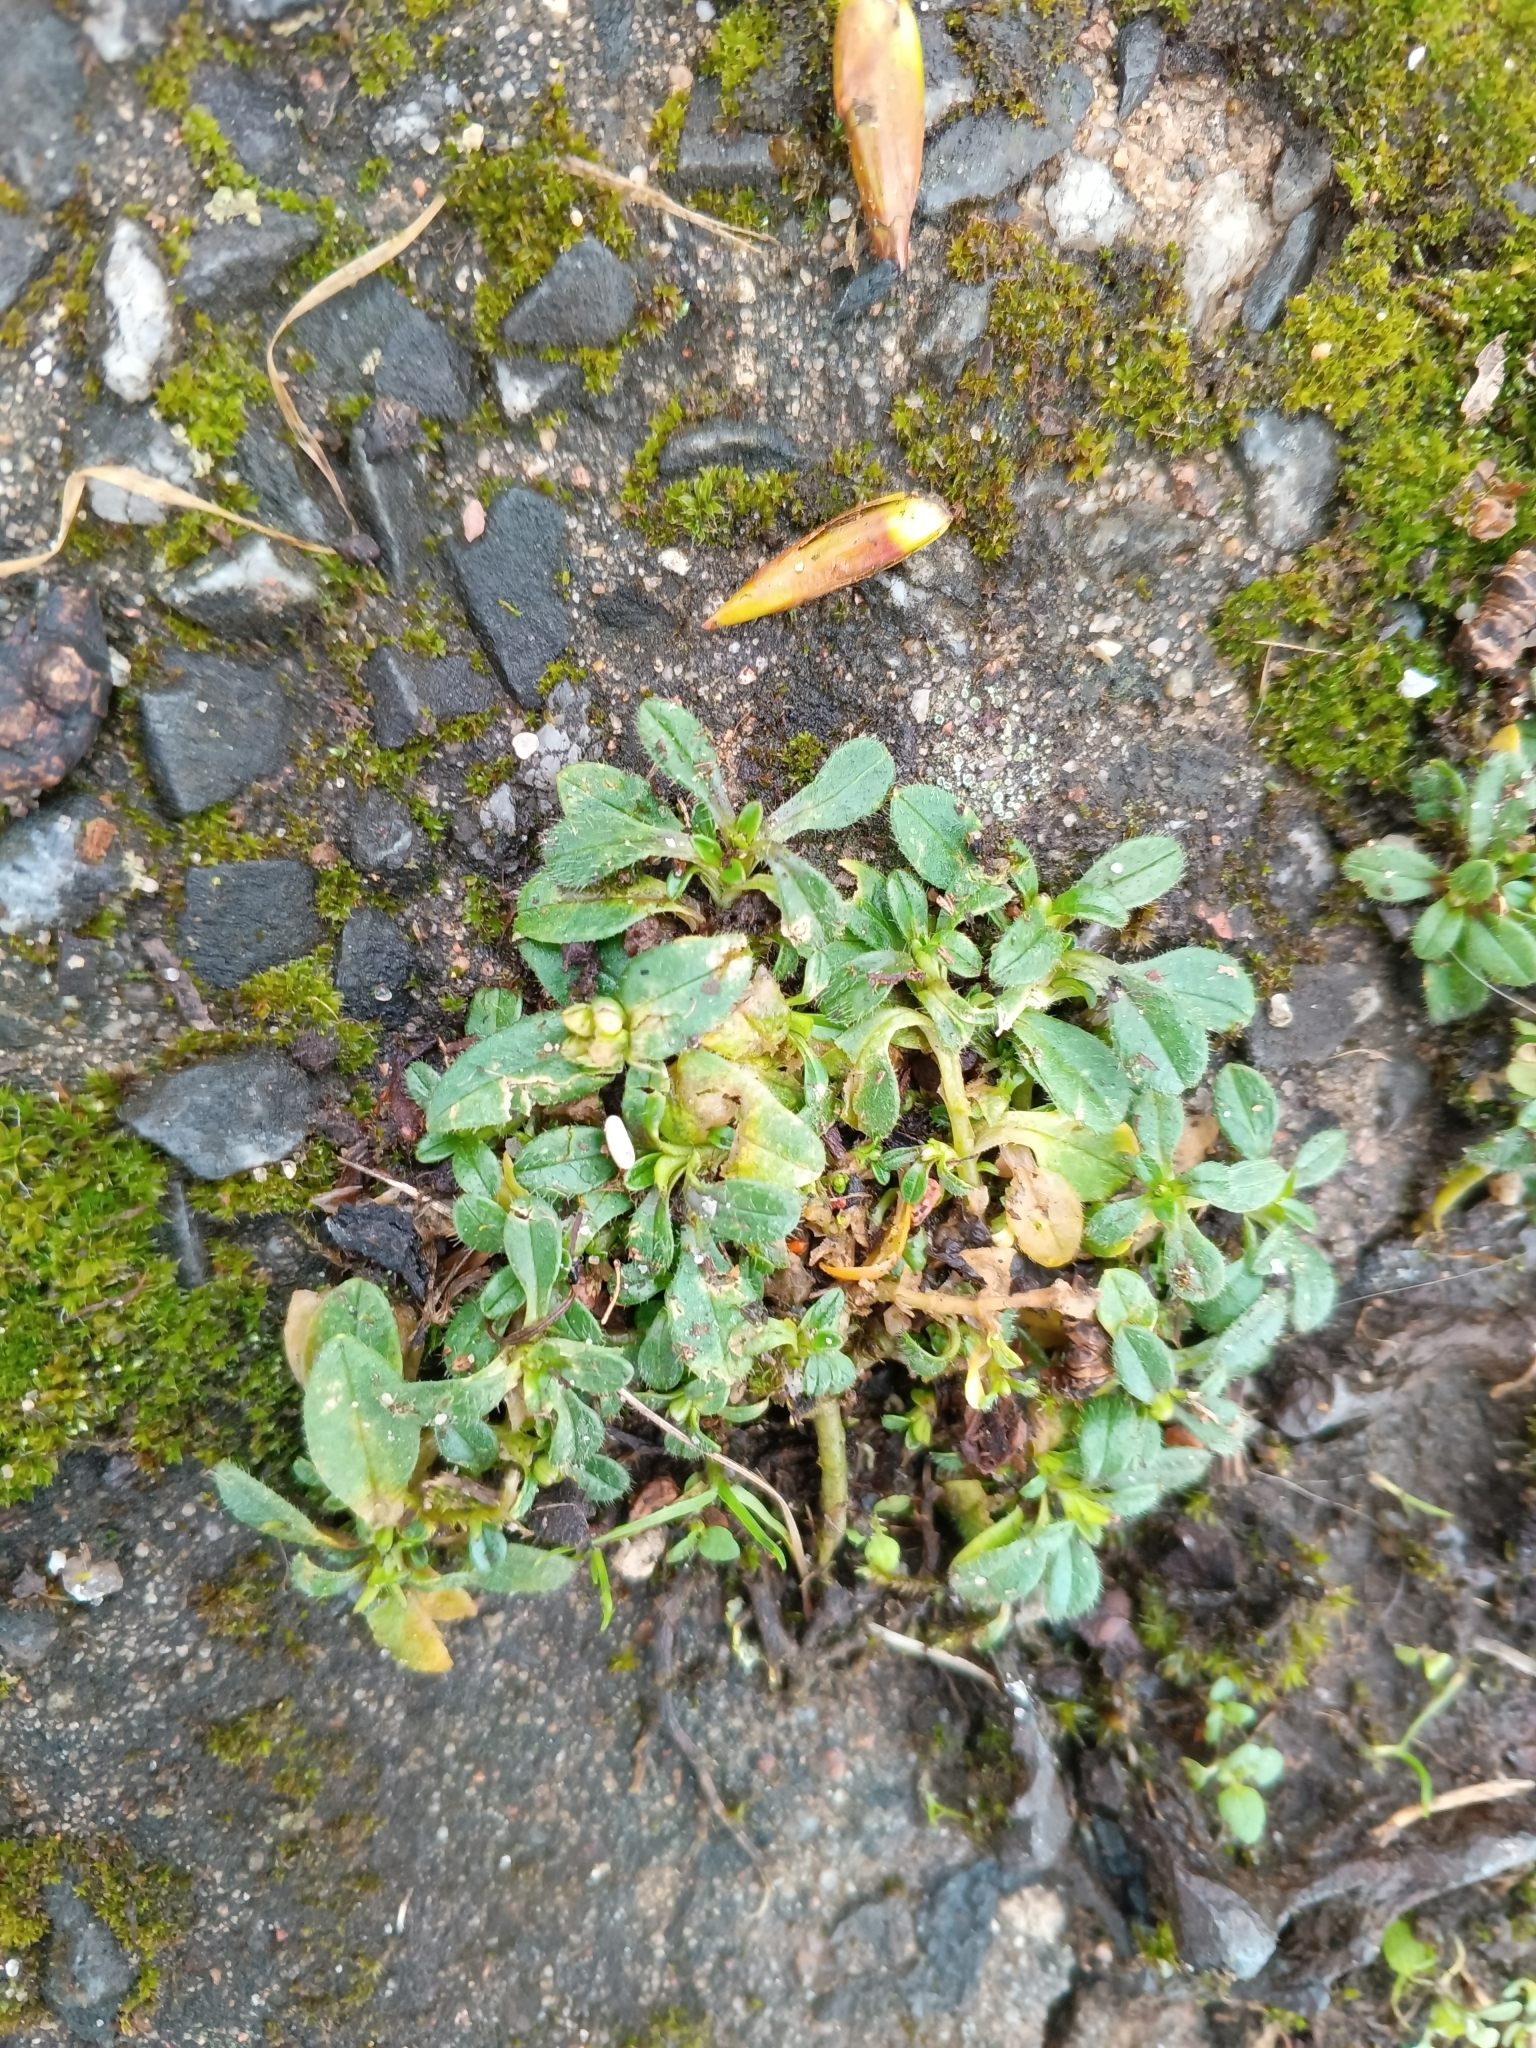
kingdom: Plantae
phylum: Tracheophyta
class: Magnoliopsida
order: Caryophyllales
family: Caryophyllaceae
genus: Cerastium
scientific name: Cerastium holosteoides
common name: Big chickweed
